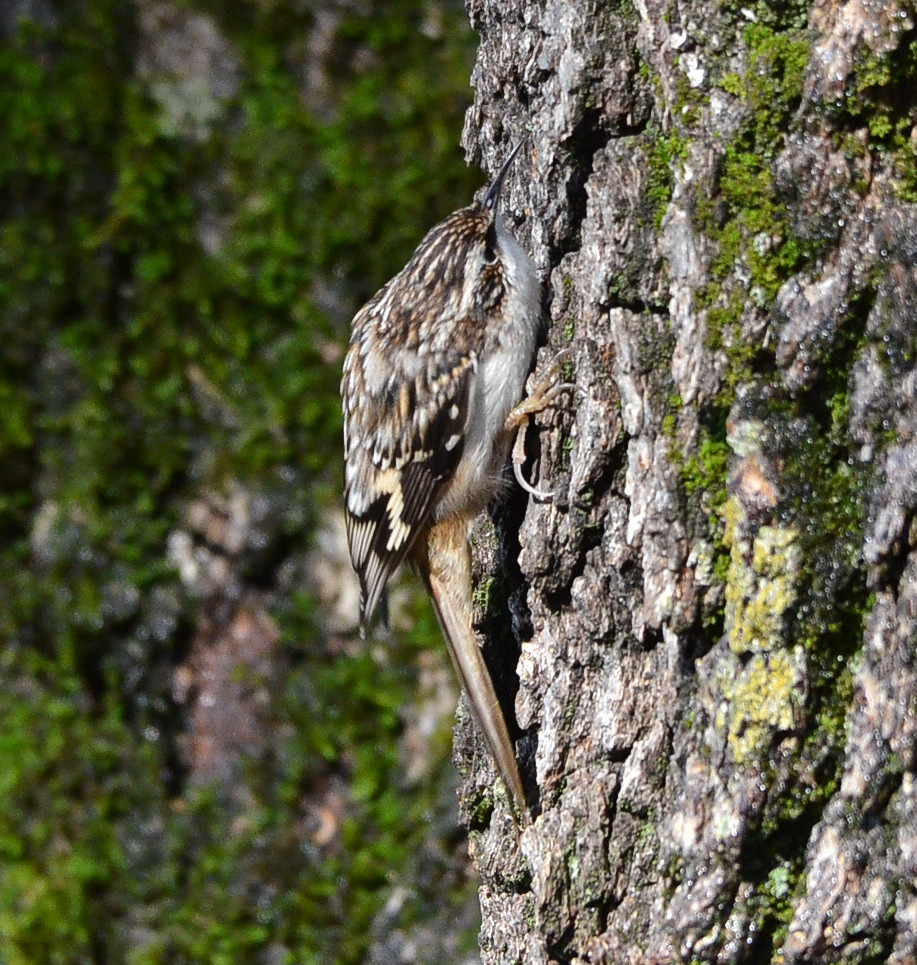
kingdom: Animalia
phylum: Chordata
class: Aves
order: Passeriformes
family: Certhiidae
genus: Certhia
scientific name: Certhia americana
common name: Brown creeper
